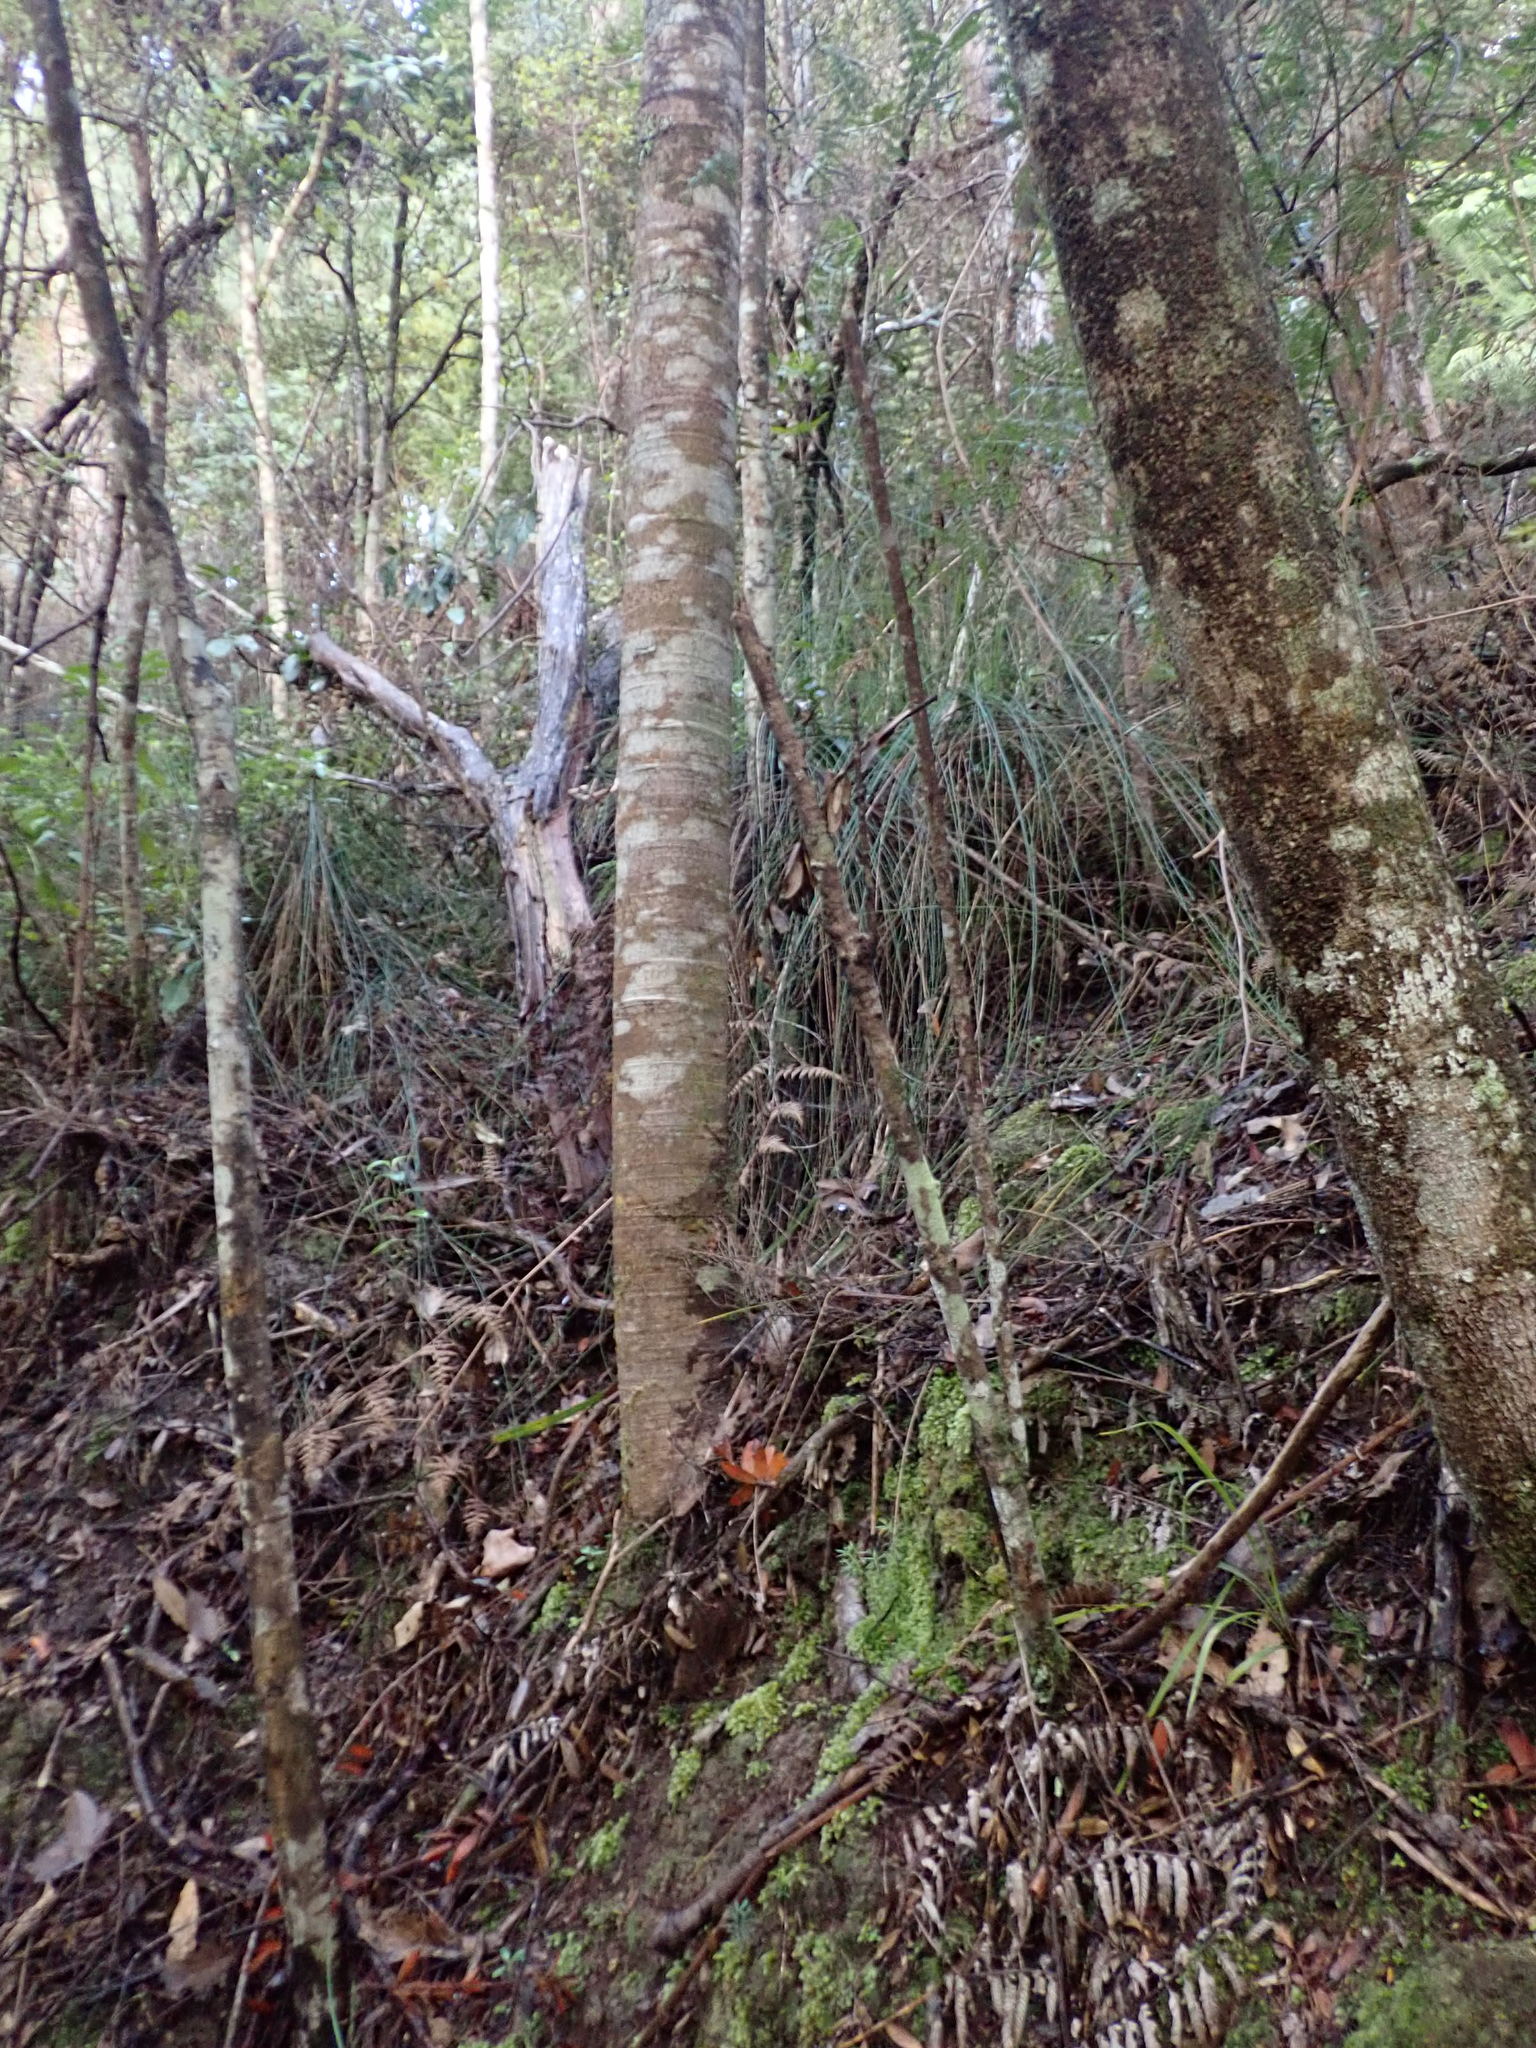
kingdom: Plantae
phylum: Tracheophyta
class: Pinopsida
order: Pinales
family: Araucariaceae
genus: Agathis
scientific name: Agathis australis
